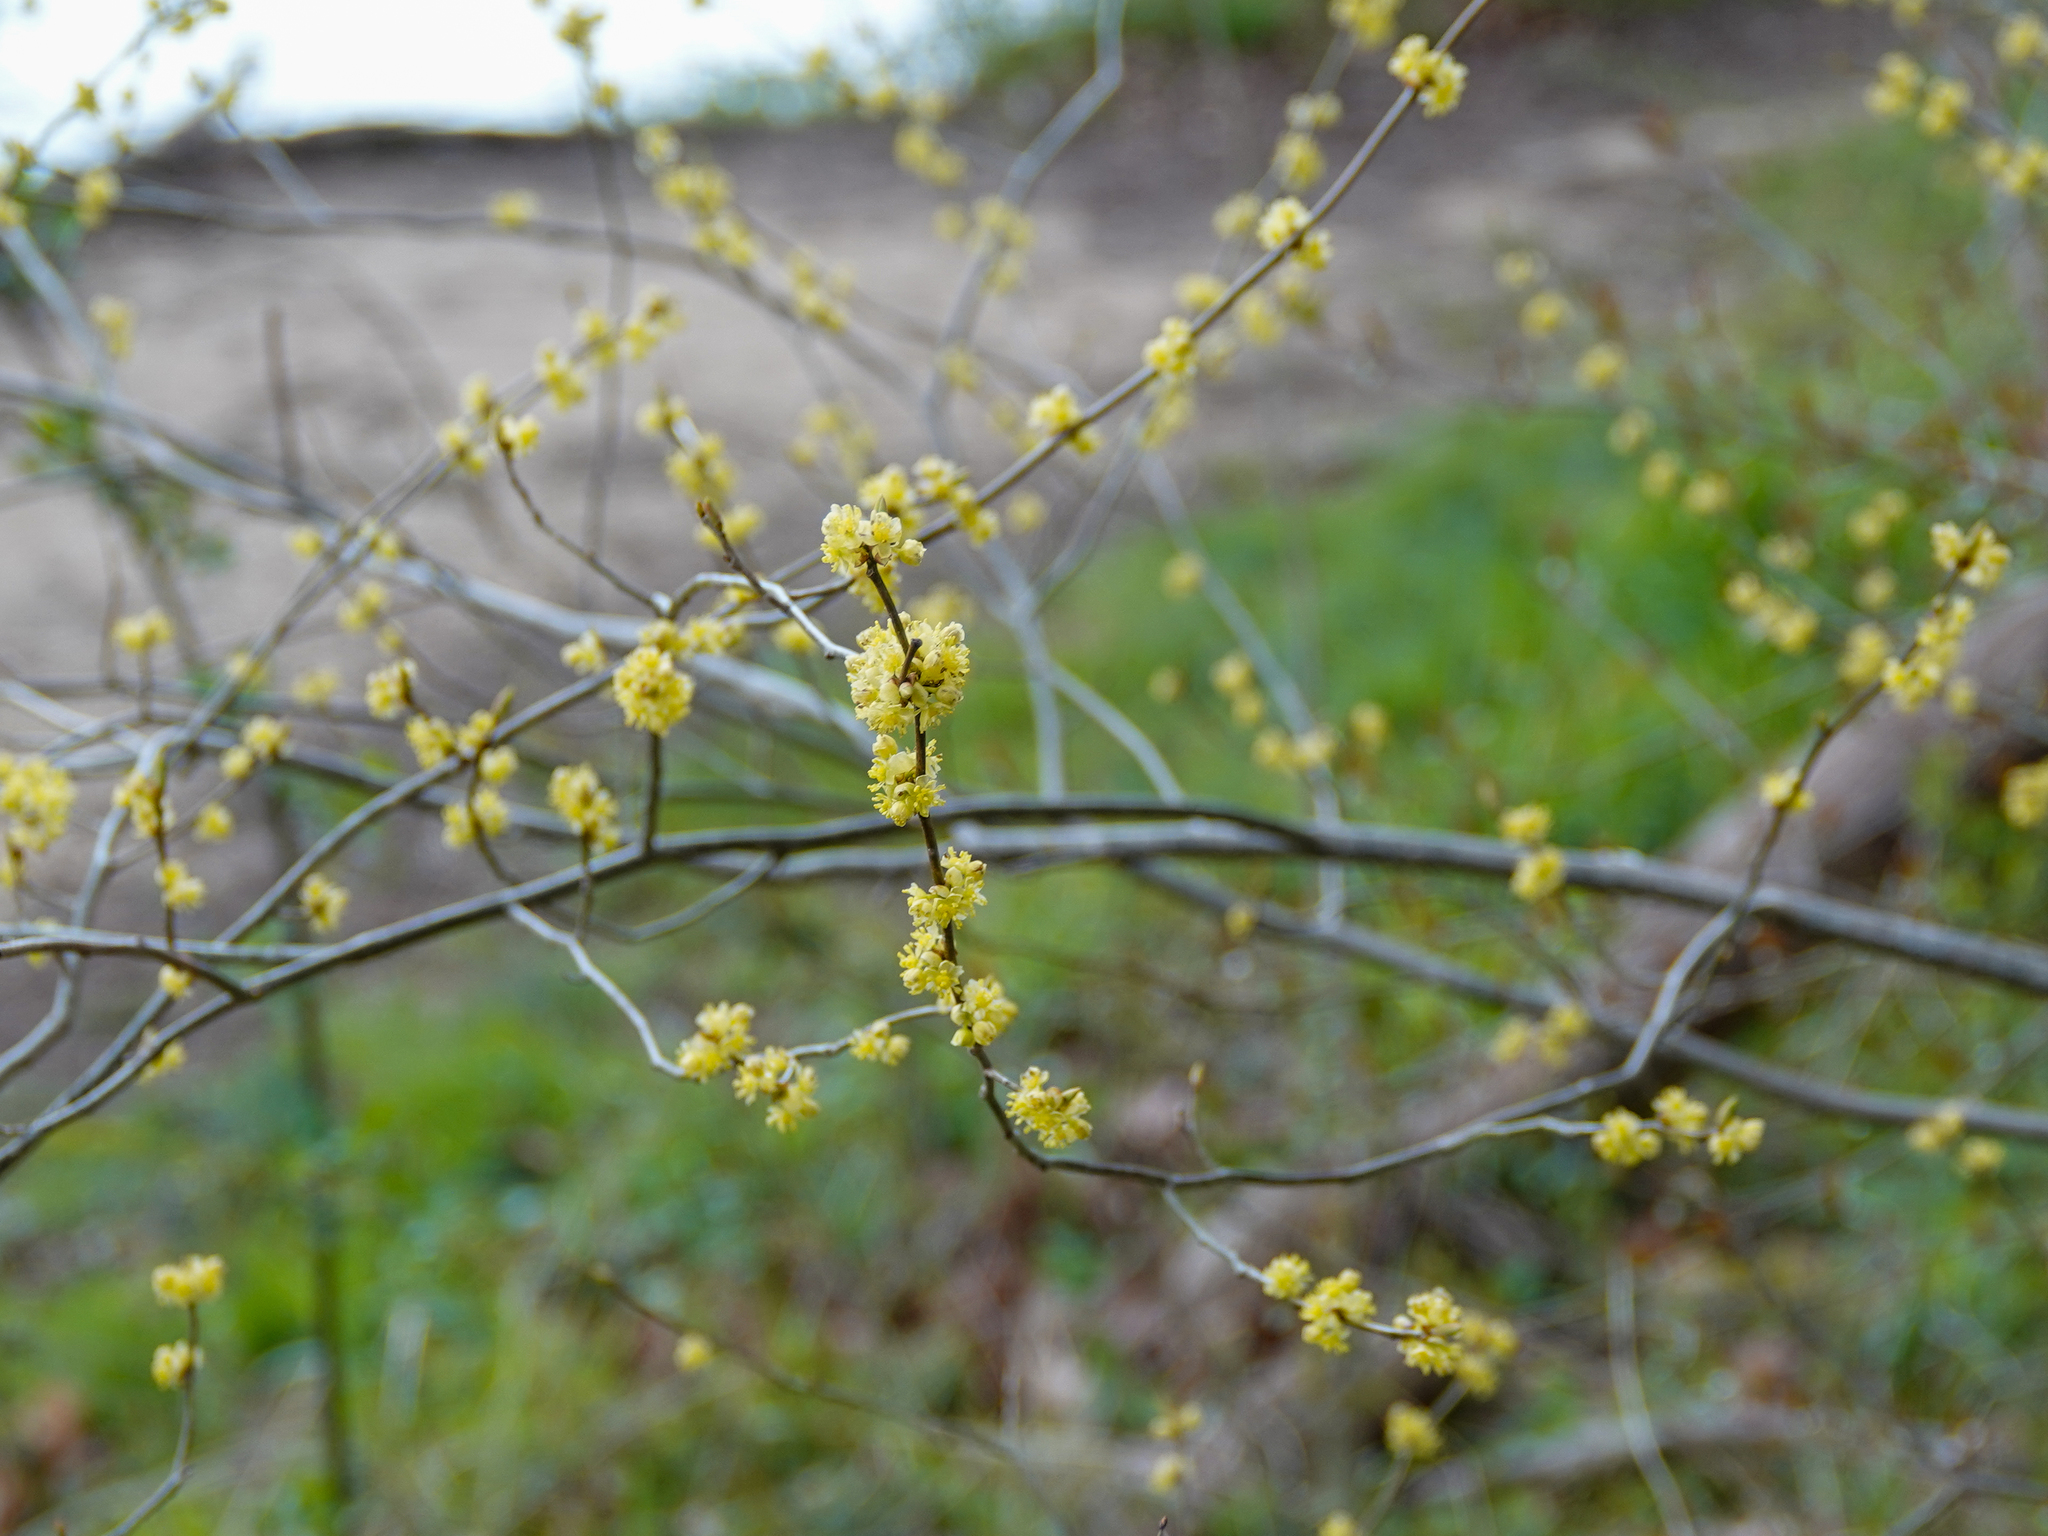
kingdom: Plantae
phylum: Tracheophyta
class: Magnoliopsida
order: Laurales
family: Lauraceae
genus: Lindera
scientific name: Lindera benzoin
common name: Spicebush
